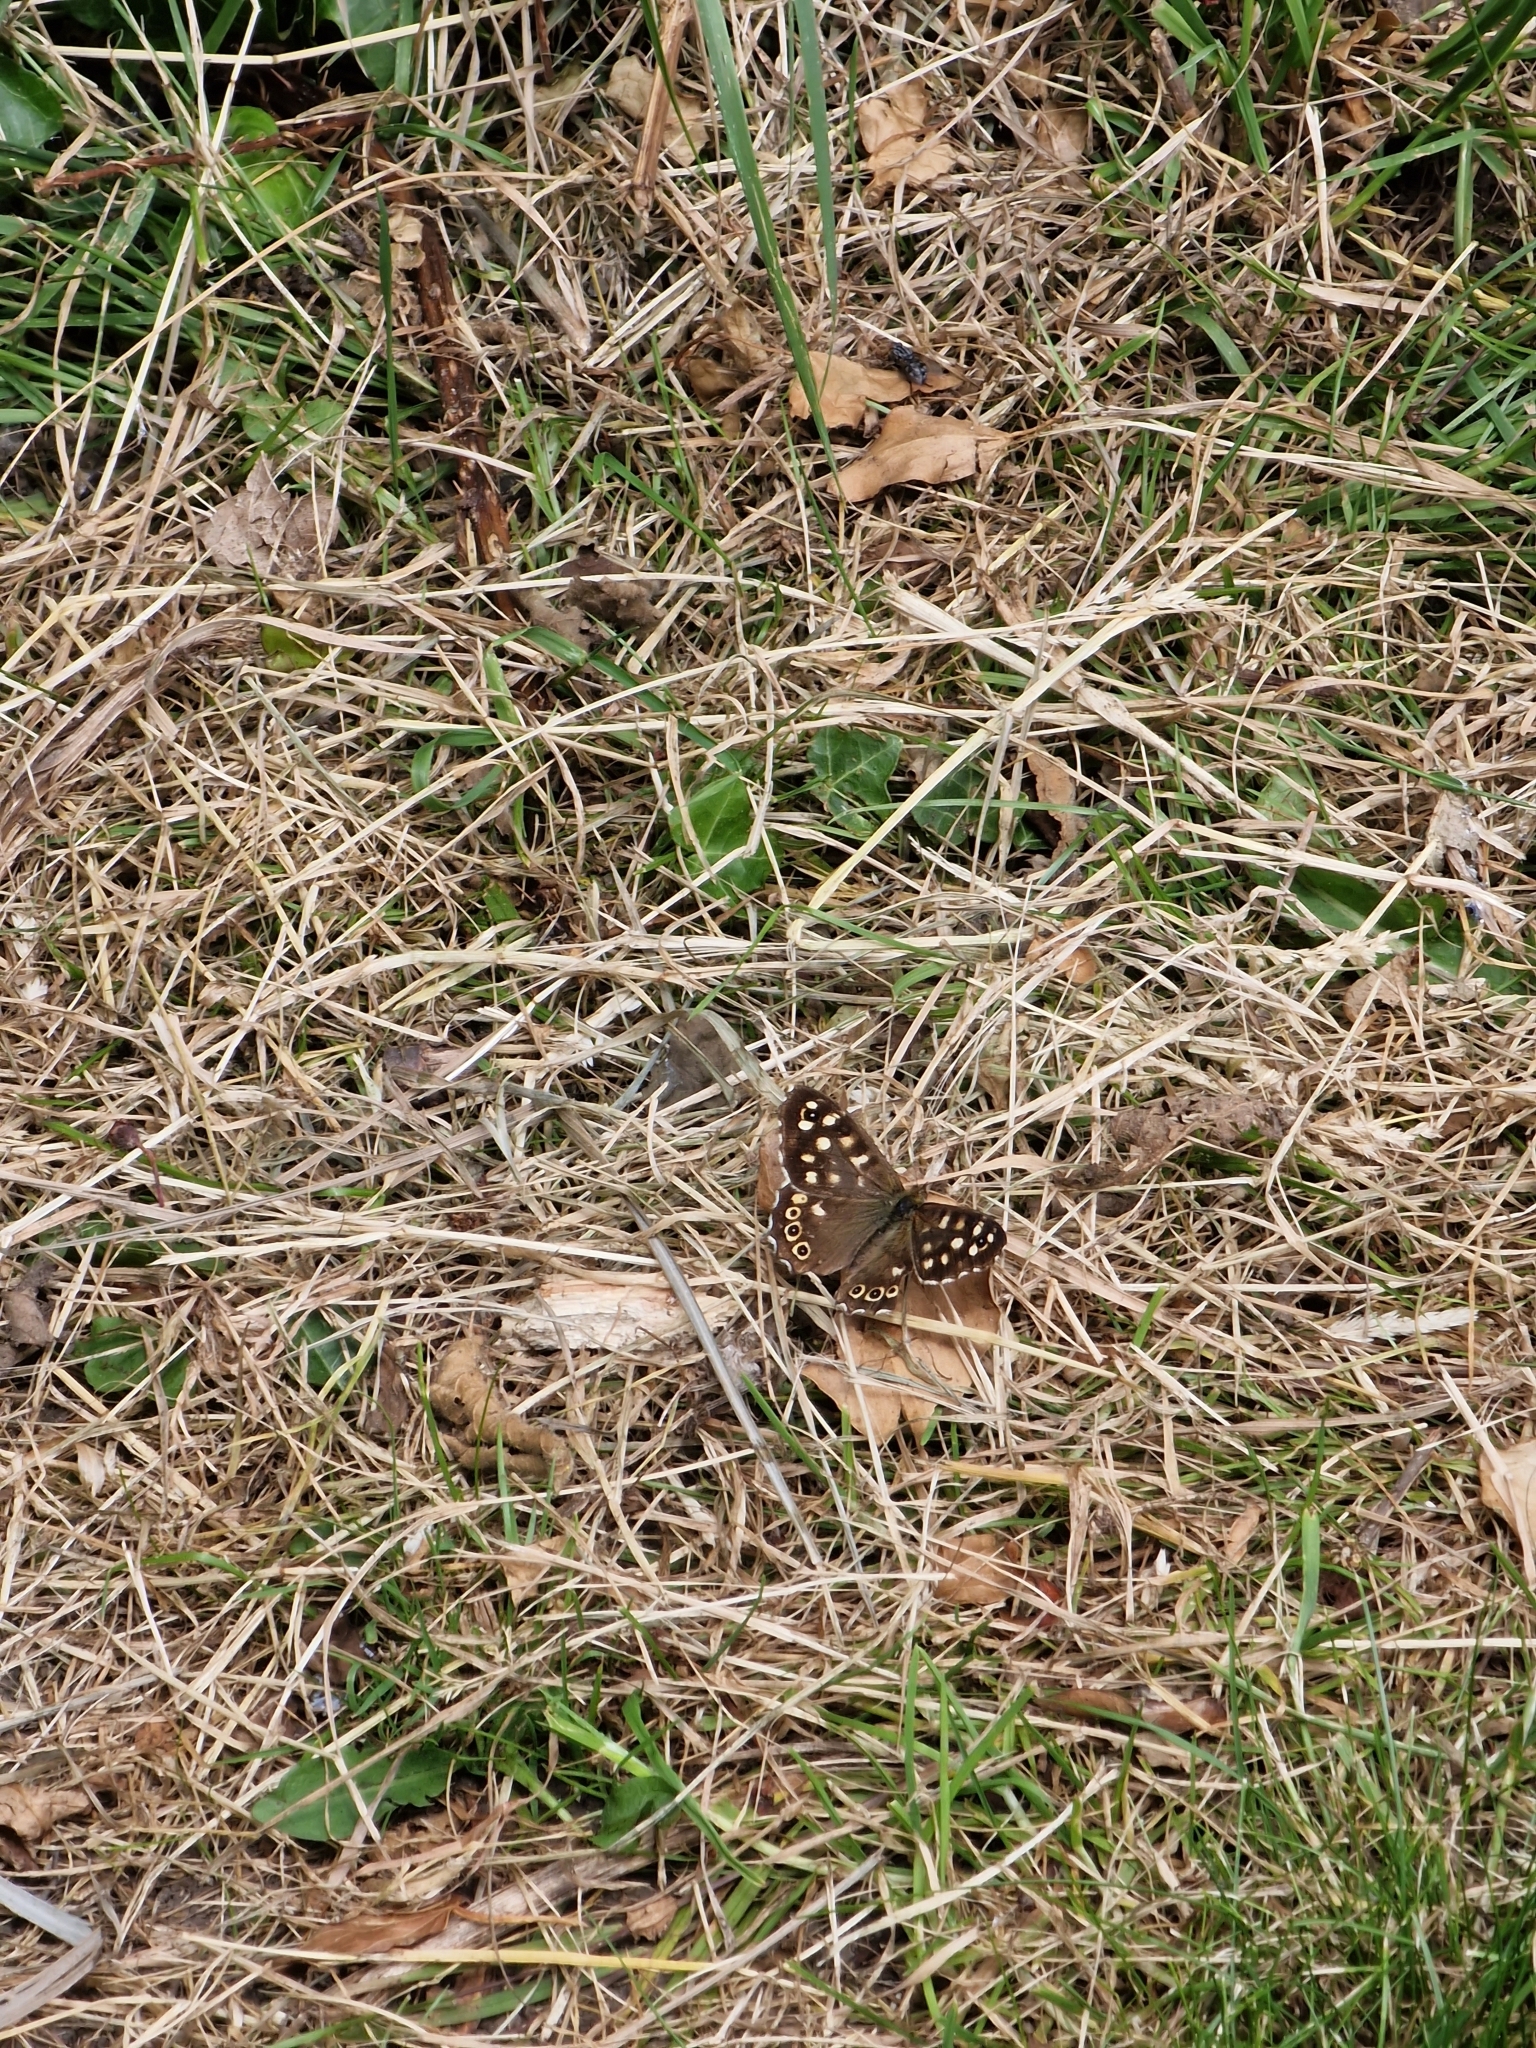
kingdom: Animalia
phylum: Arthropoda
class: Insecta
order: Lepidoptera
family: Nymphalidae
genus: Pararge
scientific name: Pararge aegeria
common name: Speckled wood
